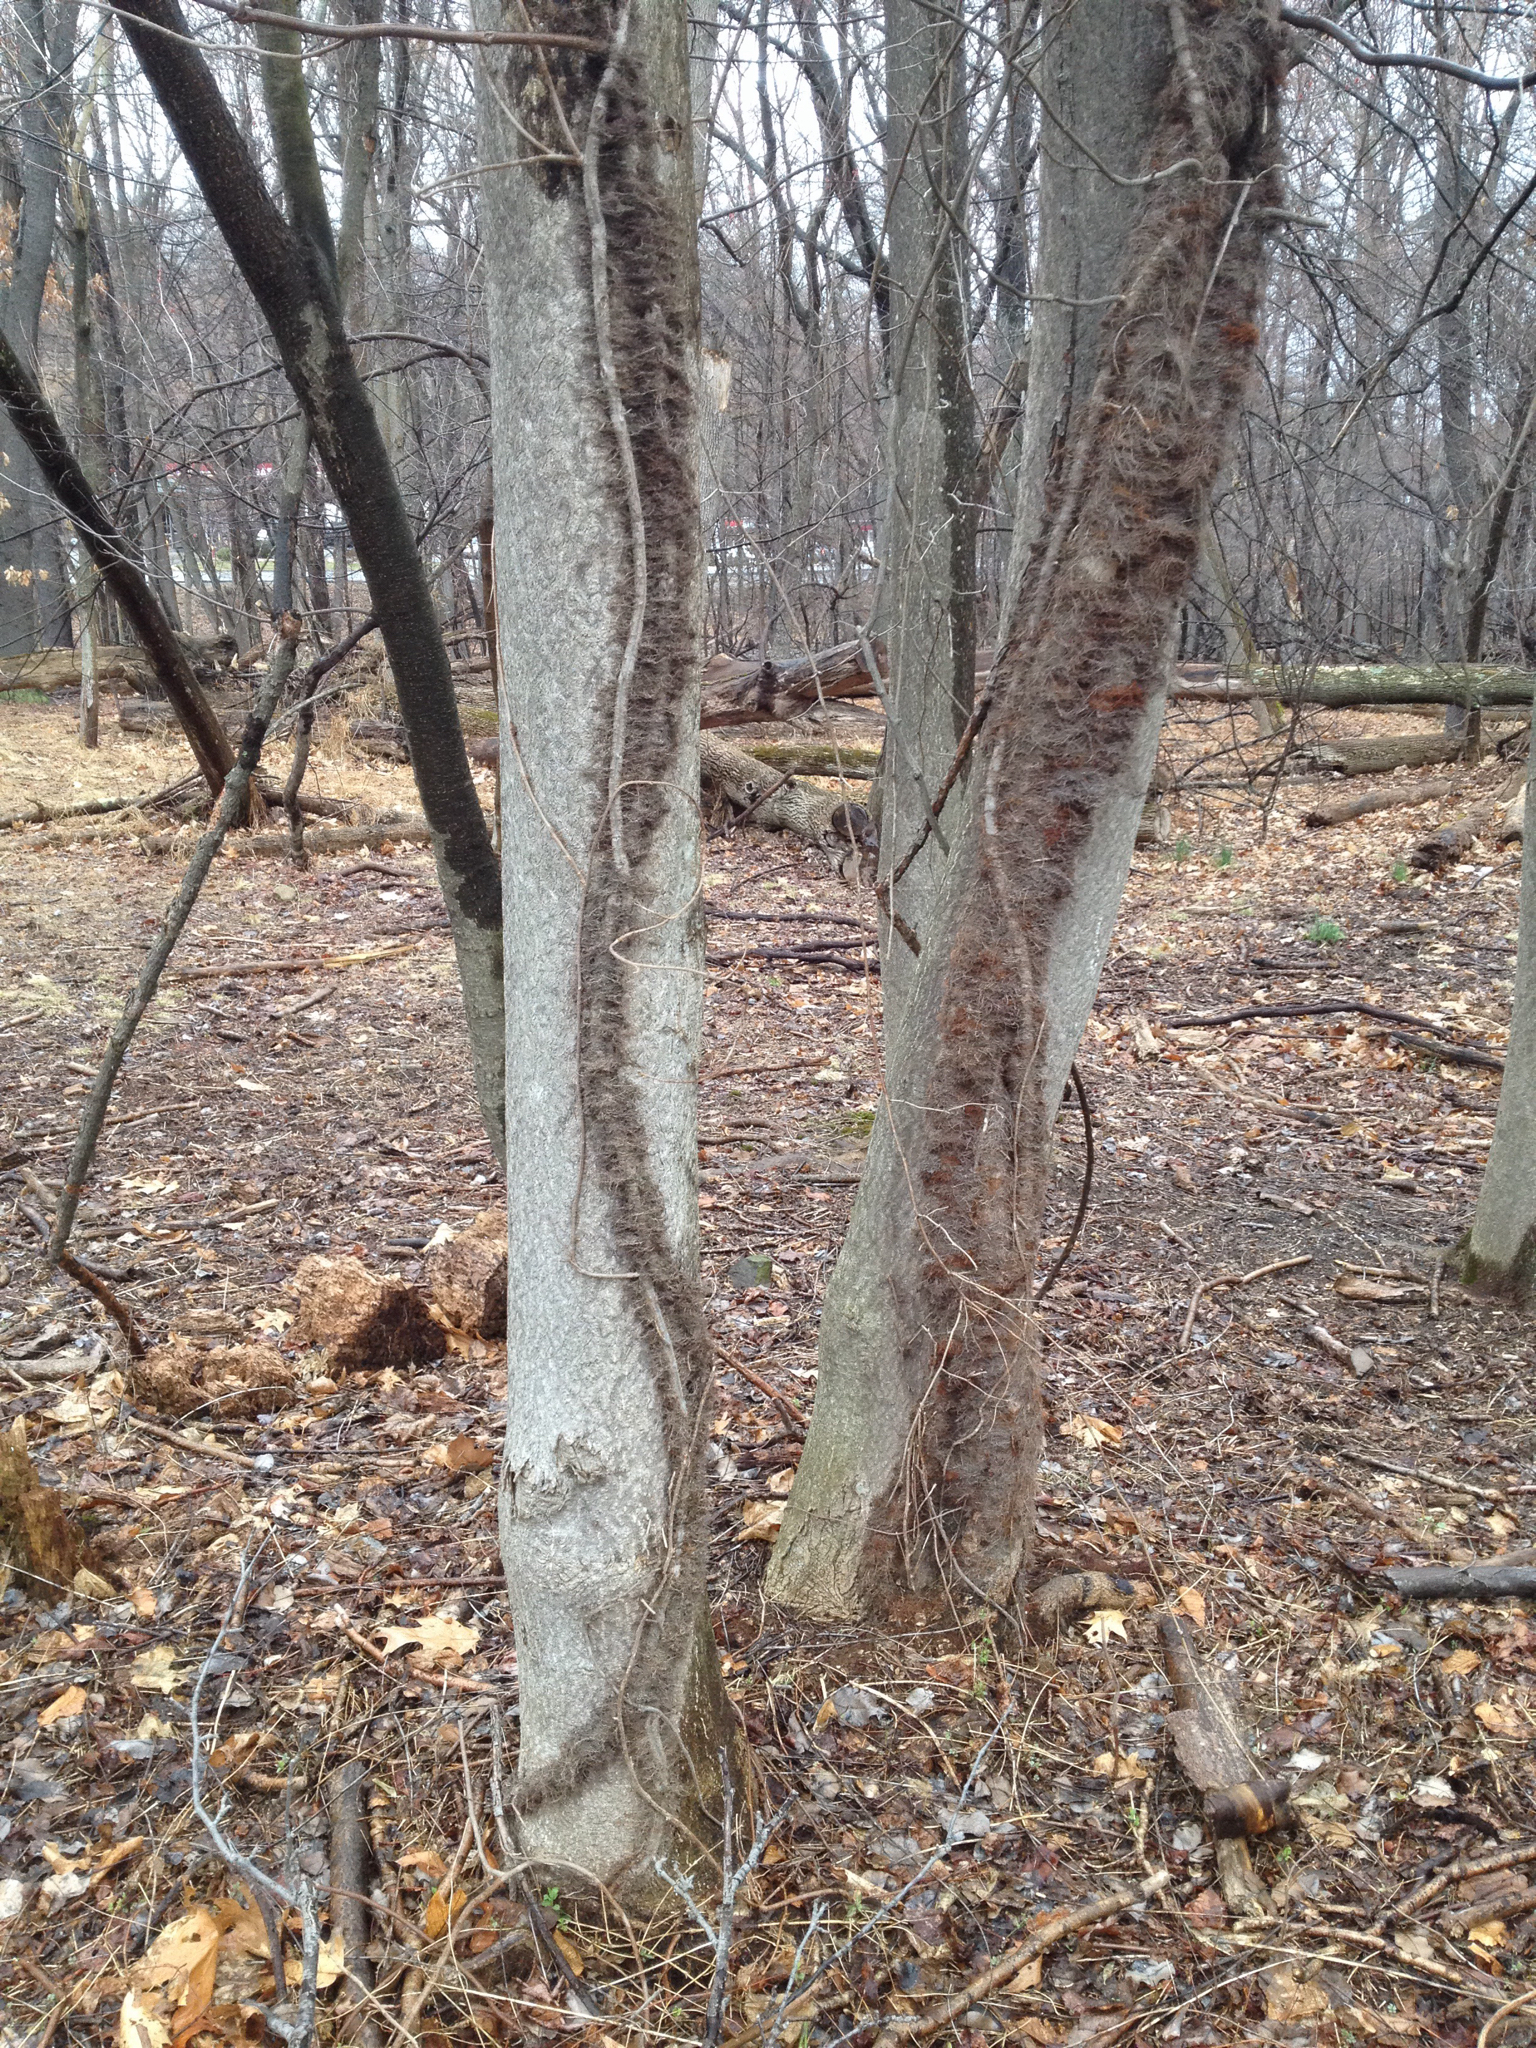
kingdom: Plantae
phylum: Tracheophyta
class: Magnoliopsida
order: Sapindales
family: Anacardiaceae
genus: Toxicodendron
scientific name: Toxicodendron radicans
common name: Poison ivy
